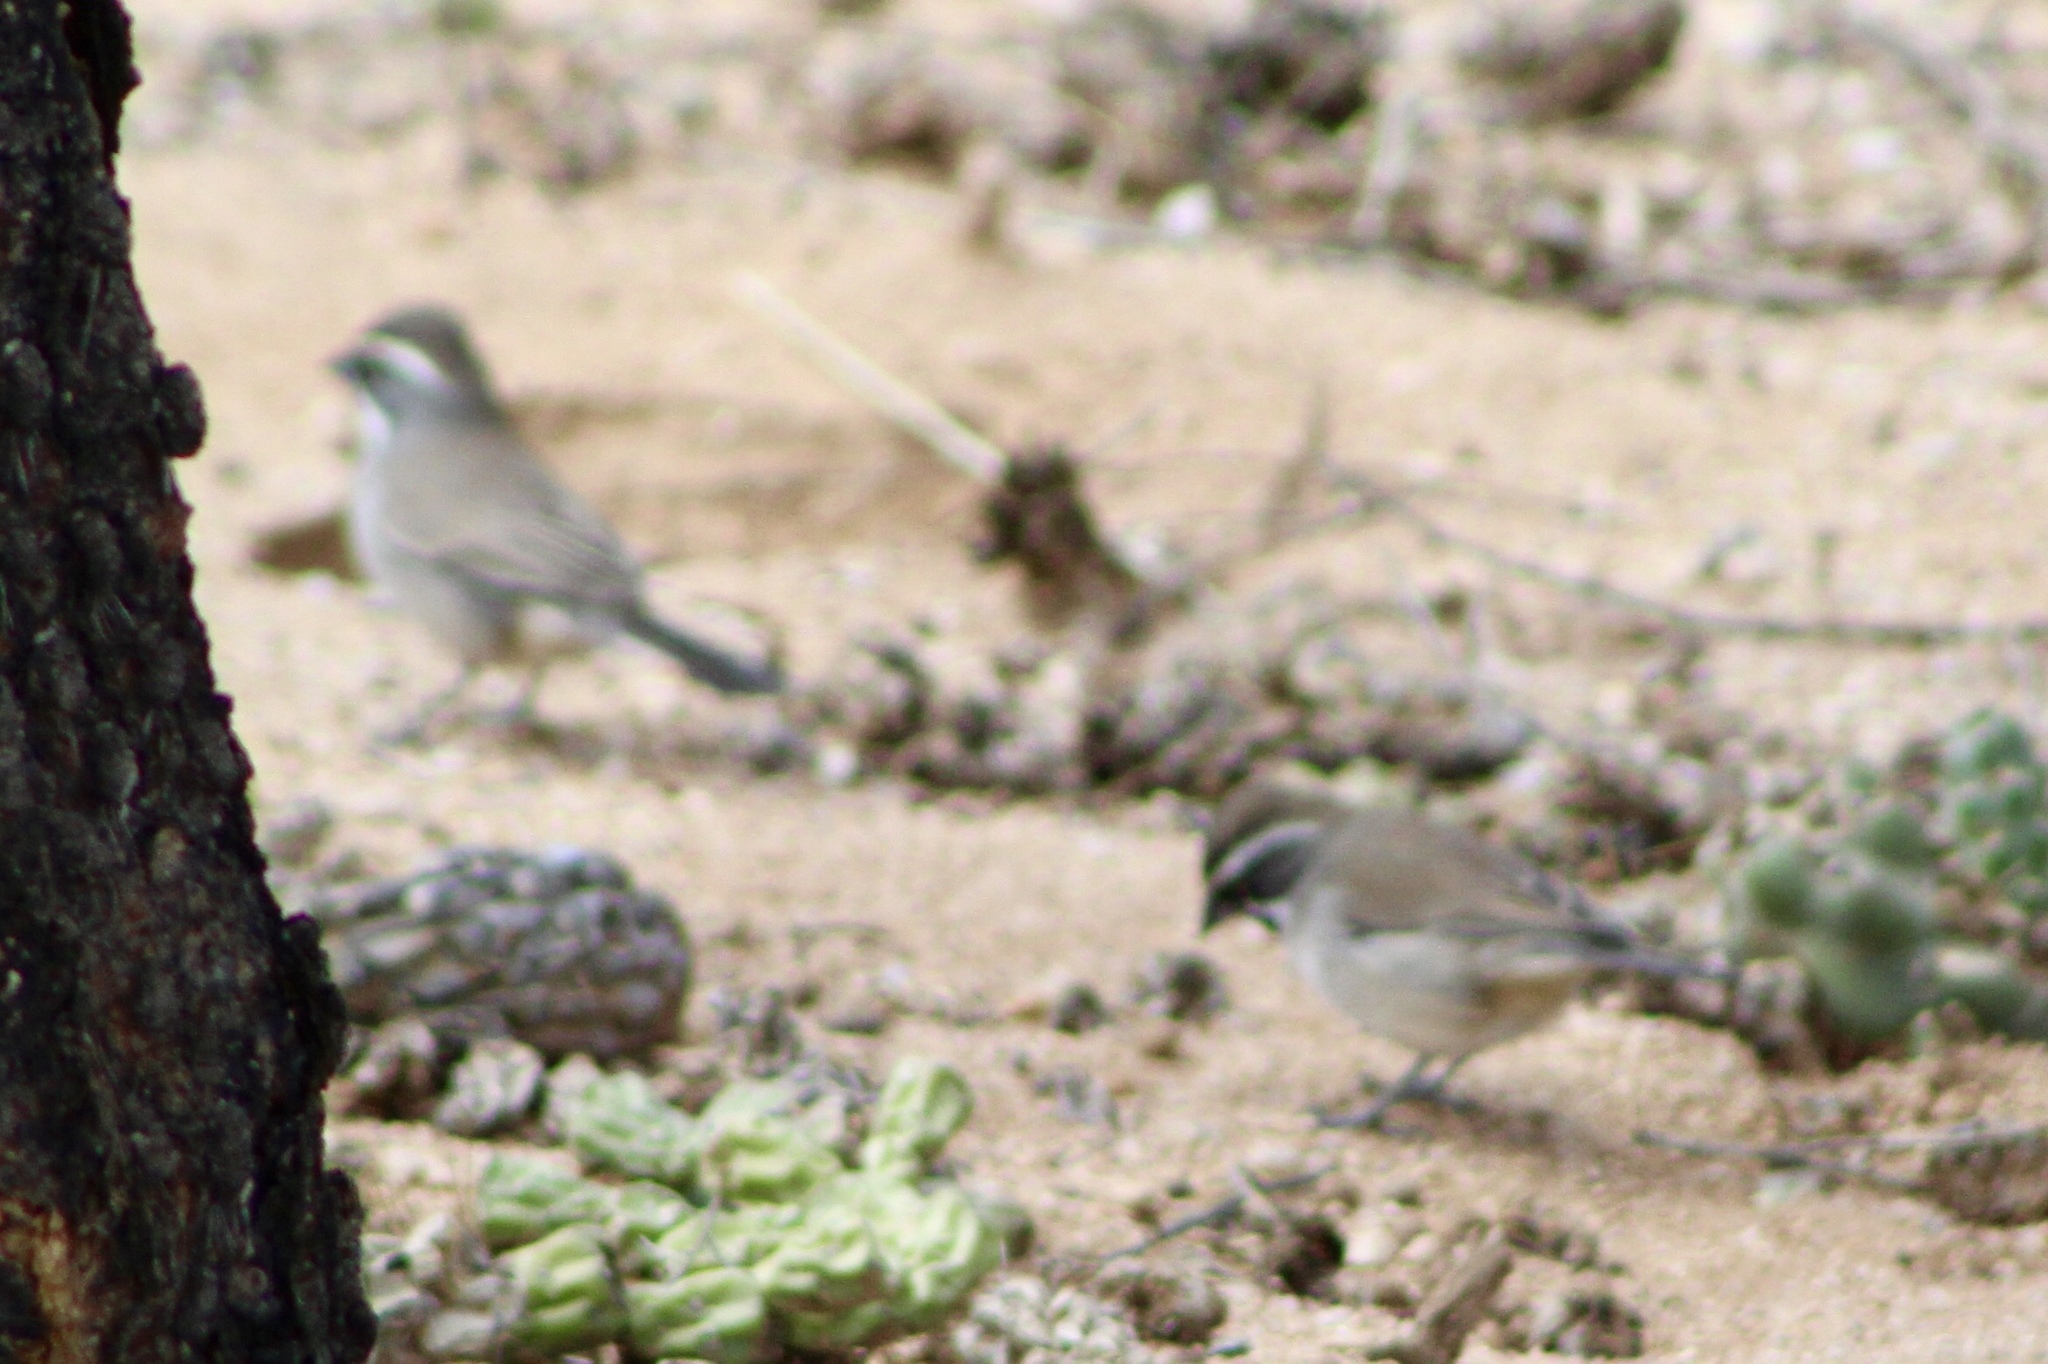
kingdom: Animalia
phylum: Chordata
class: Aves
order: Passeriformes
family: Passerellidae
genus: Amphispiza
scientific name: Amphispiza bilineata
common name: Black-throated sparrow
